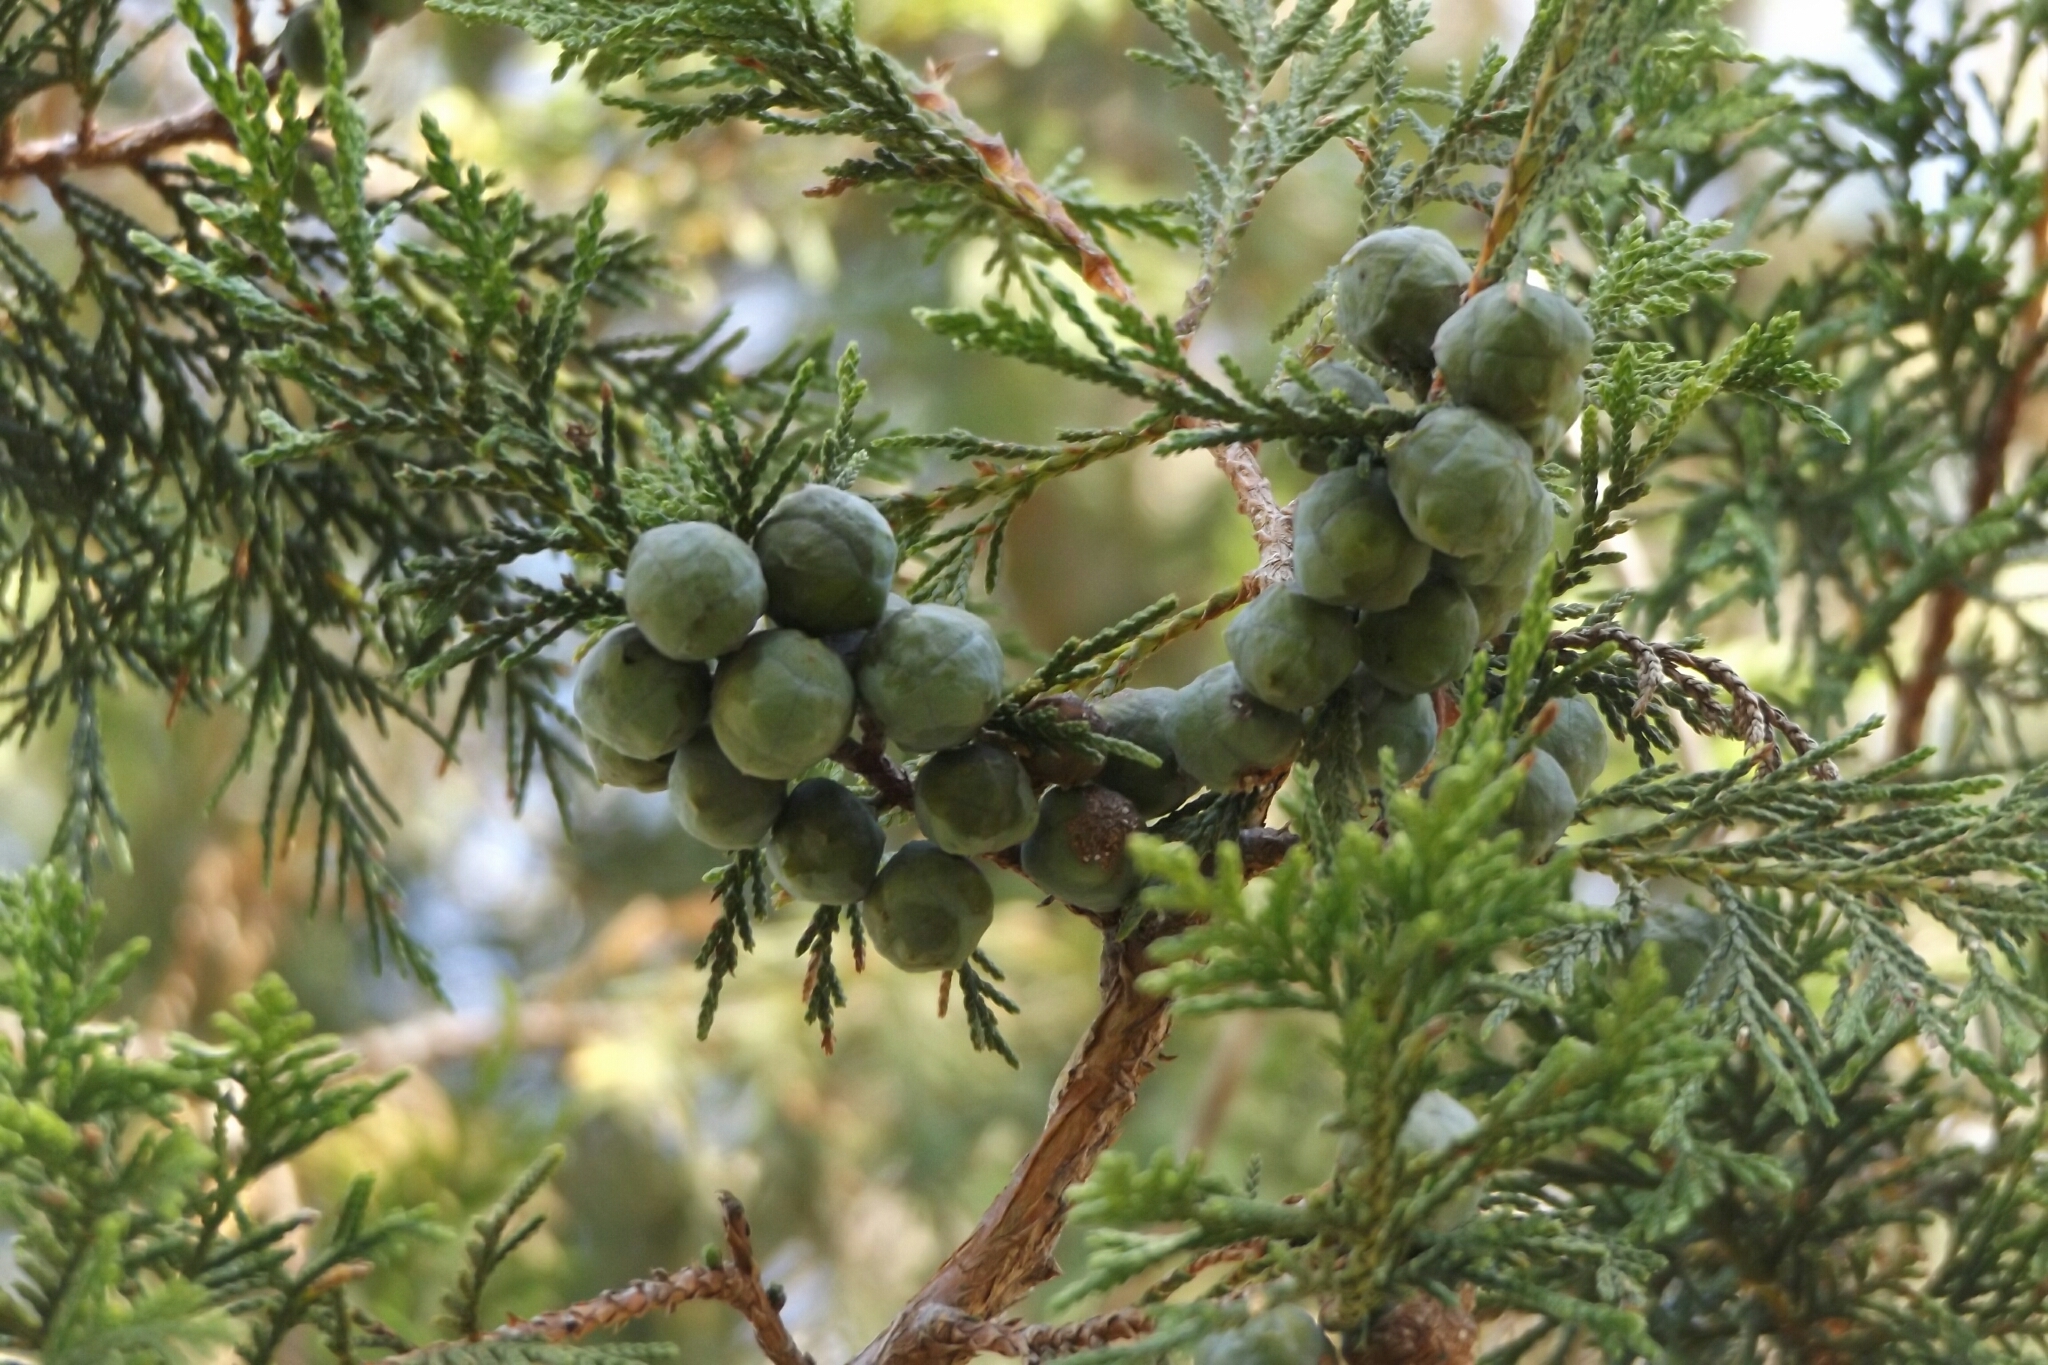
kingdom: Plantae
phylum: Tracheophyta
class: Pinopsida
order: Pinales
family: Cupressaceae
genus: Juniperus
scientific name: Juniperus flaccida
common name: Drooping juniper
